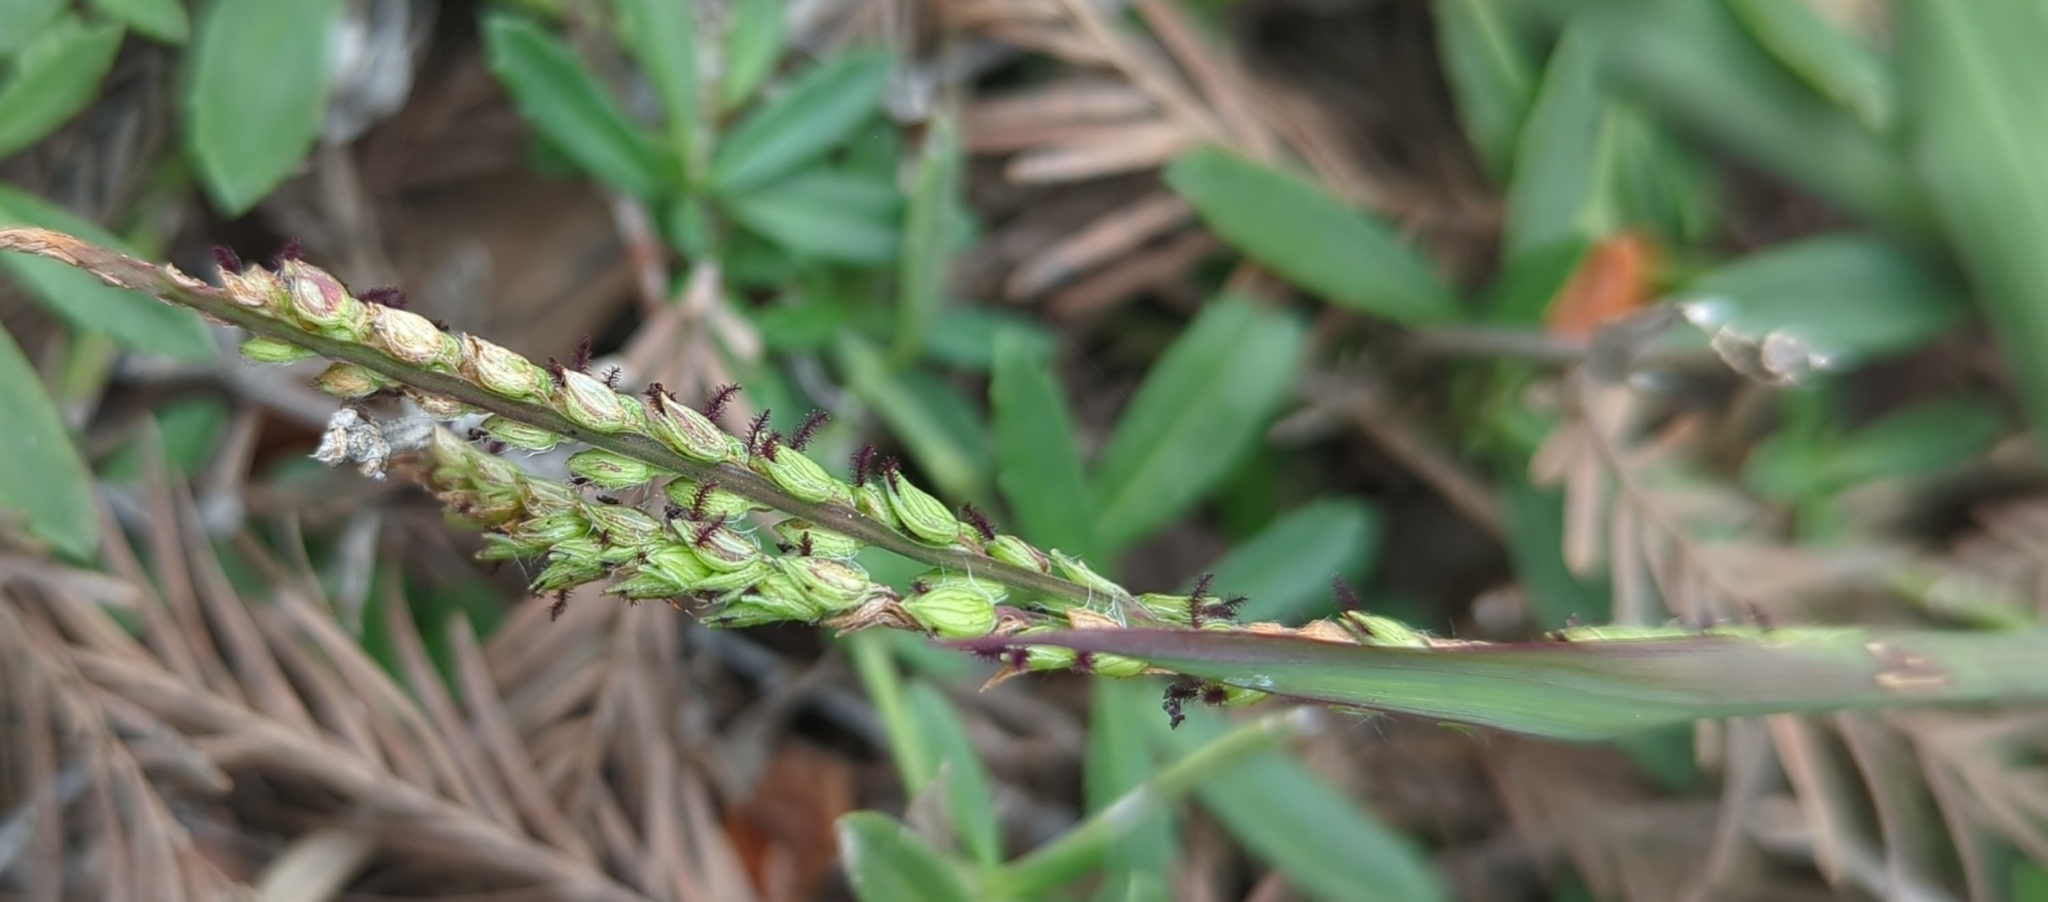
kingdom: Plantae
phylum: Tracheophyta
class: Liliopsida
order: Poales
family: Poaceae
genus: Paspalum
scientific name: Paspalum dilatatum
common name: Dallisgrass
